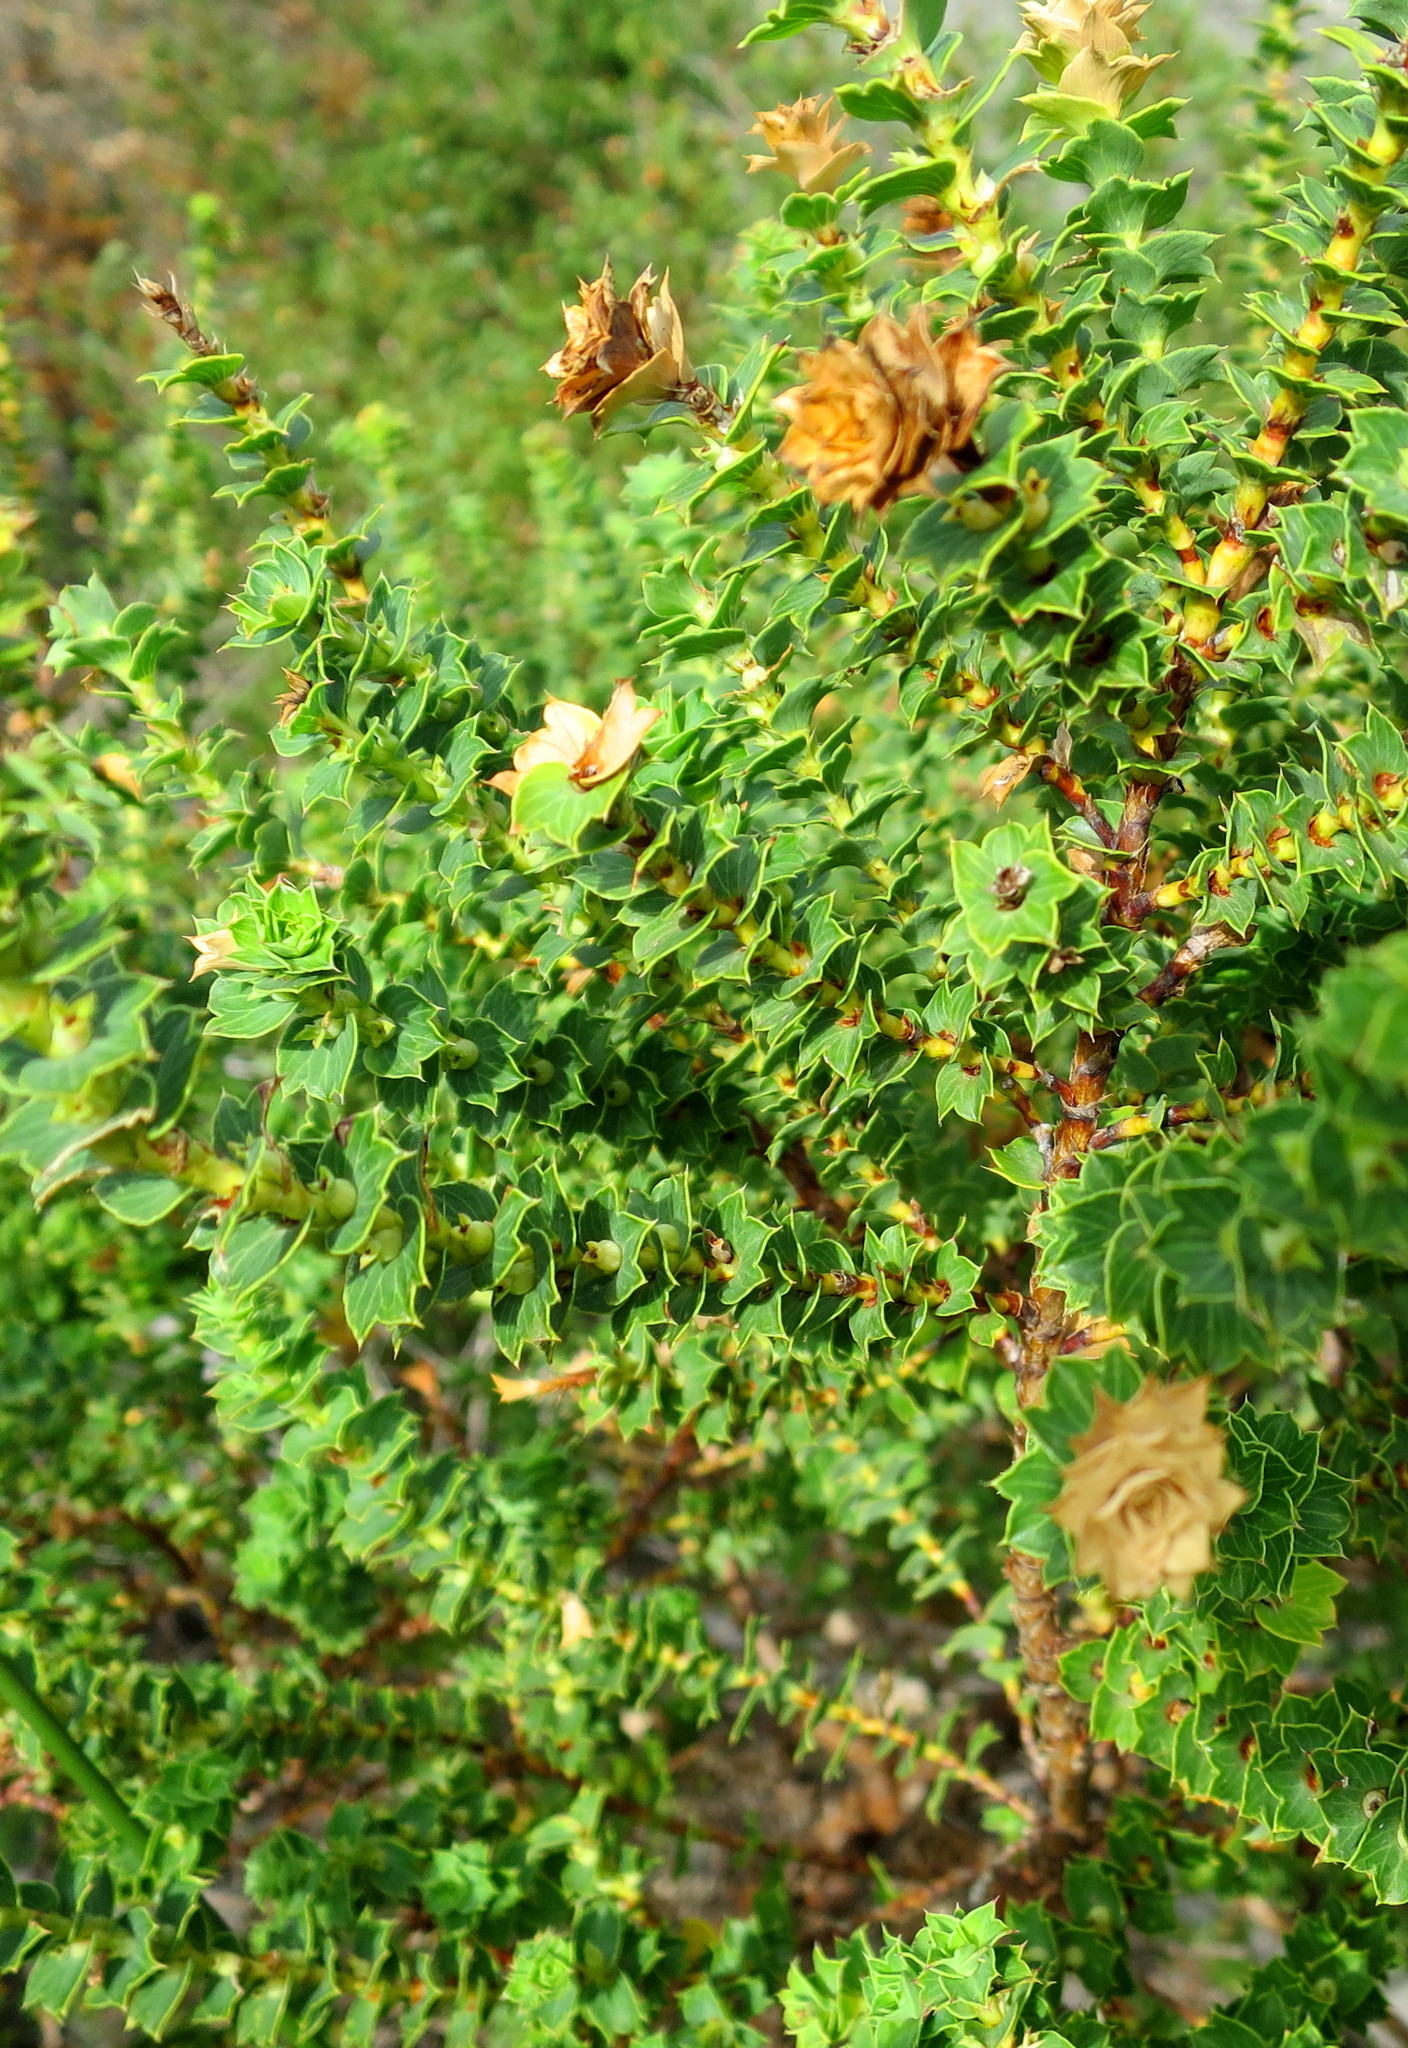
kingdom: Plantae
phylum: Tracheophyta
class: Magnoliopsida
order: Rosales
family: Rosaceae
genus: Cliffortia
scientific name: Cliffortia schlechteri
